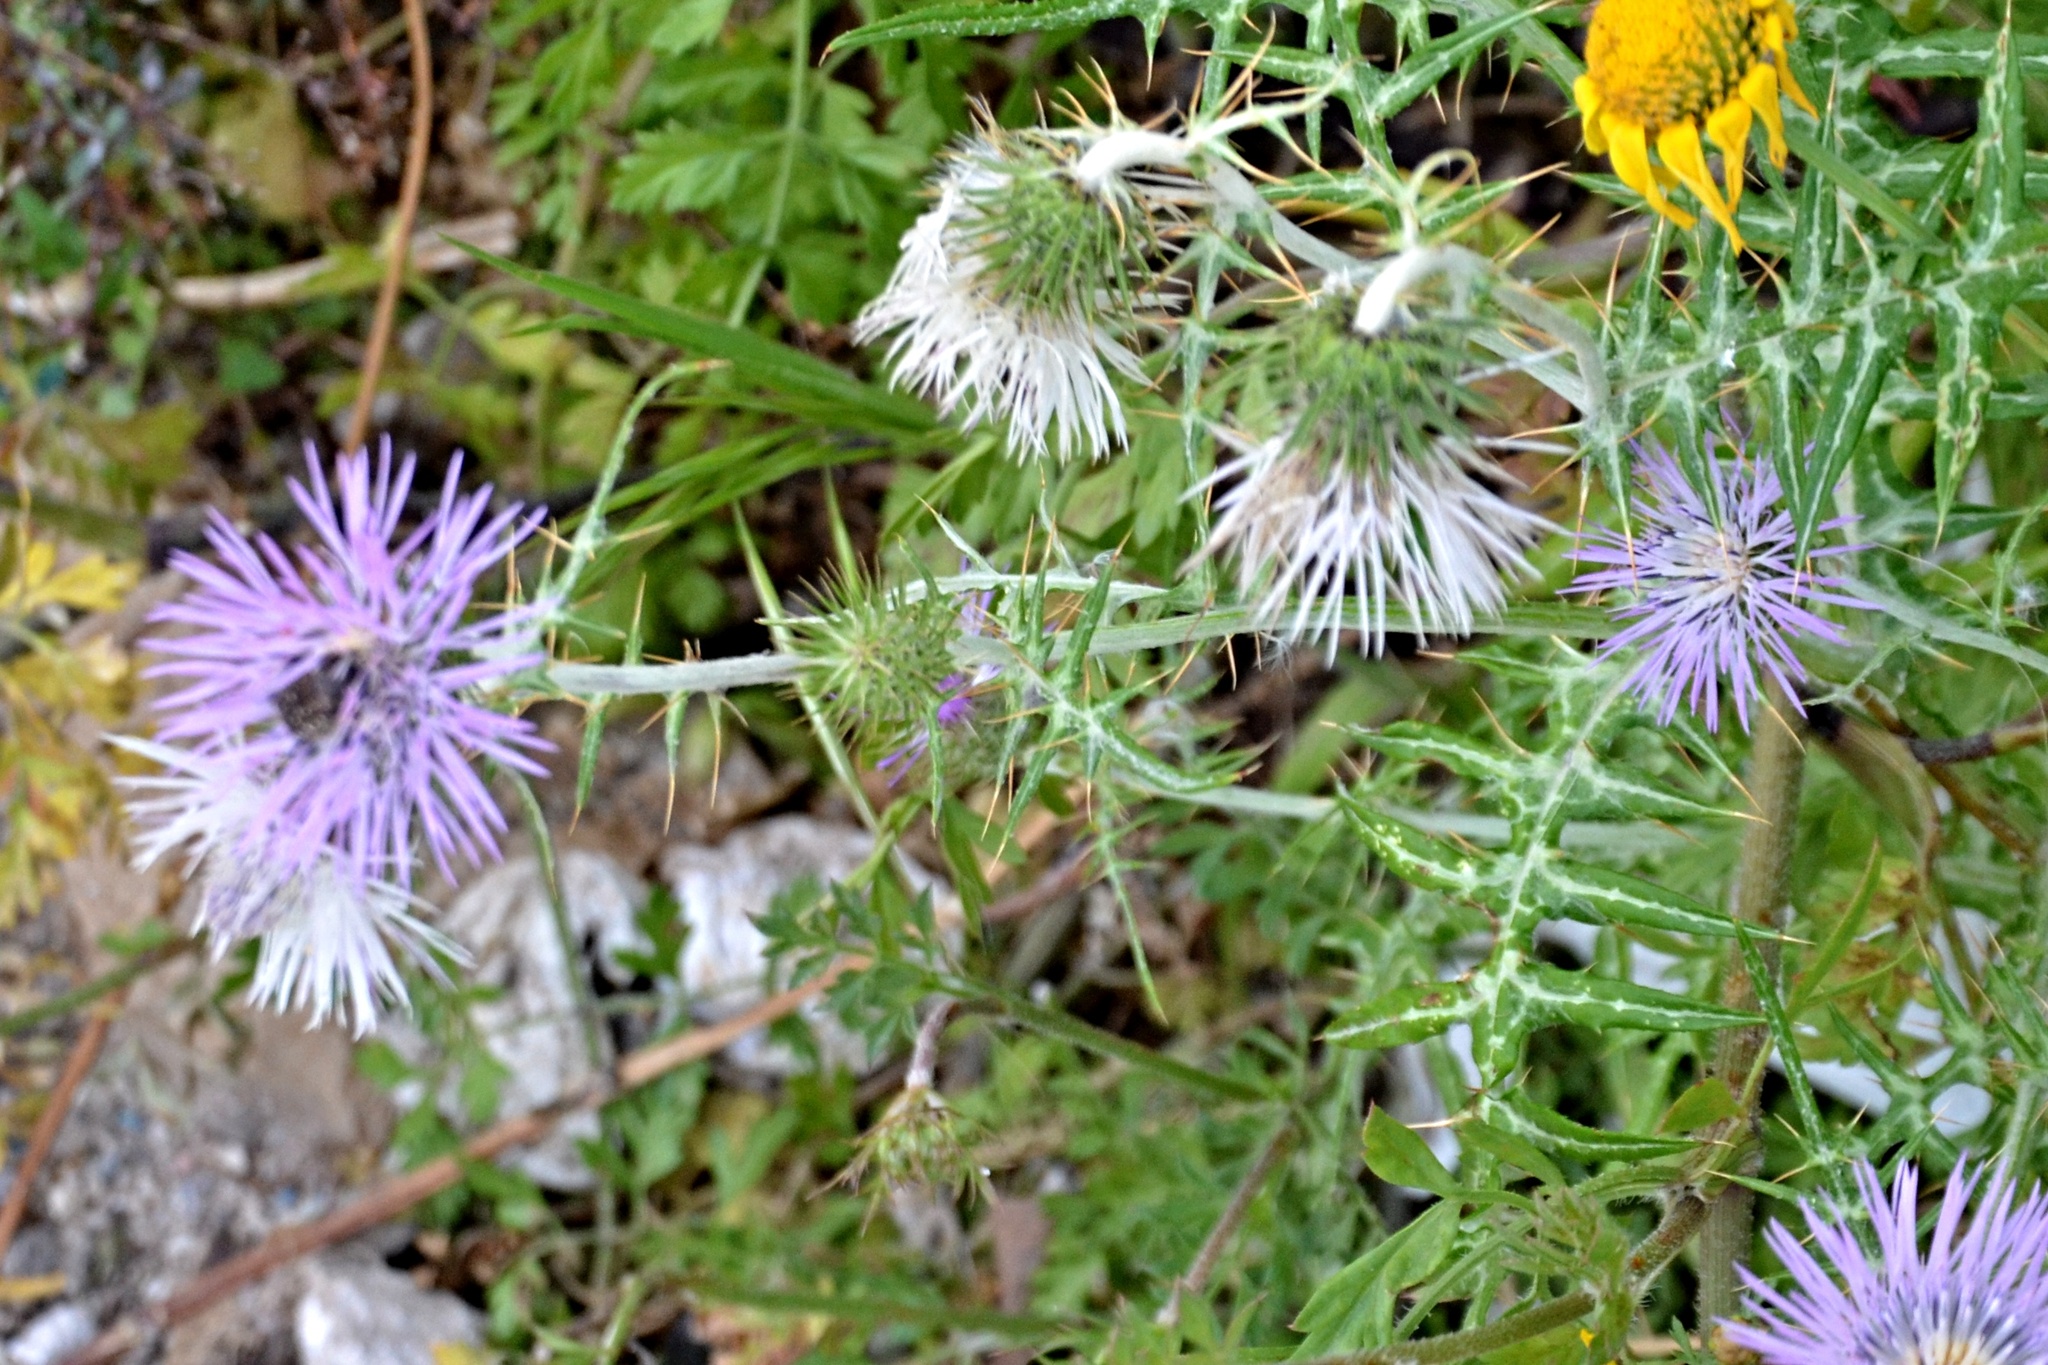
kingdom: Plantae
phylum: Tracheophyta
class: Magnoliopsida
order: Asterales
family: Asteraceae
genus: Galactites
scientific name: Galactites tomentosa
